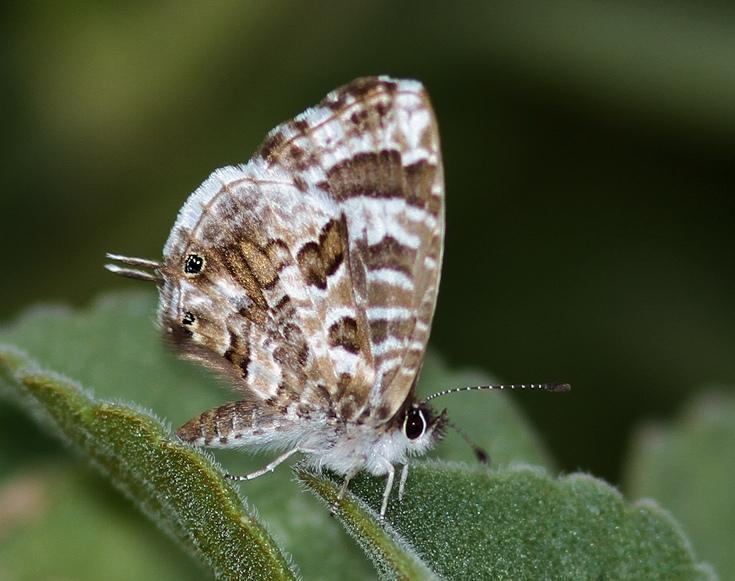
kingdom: Animalia
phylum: Arthropoda
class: Insecta
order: Lepidoptera
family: Lycaenidae
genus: Cacyreus
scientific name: Cacyreus lingeus
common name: Bush bronze
